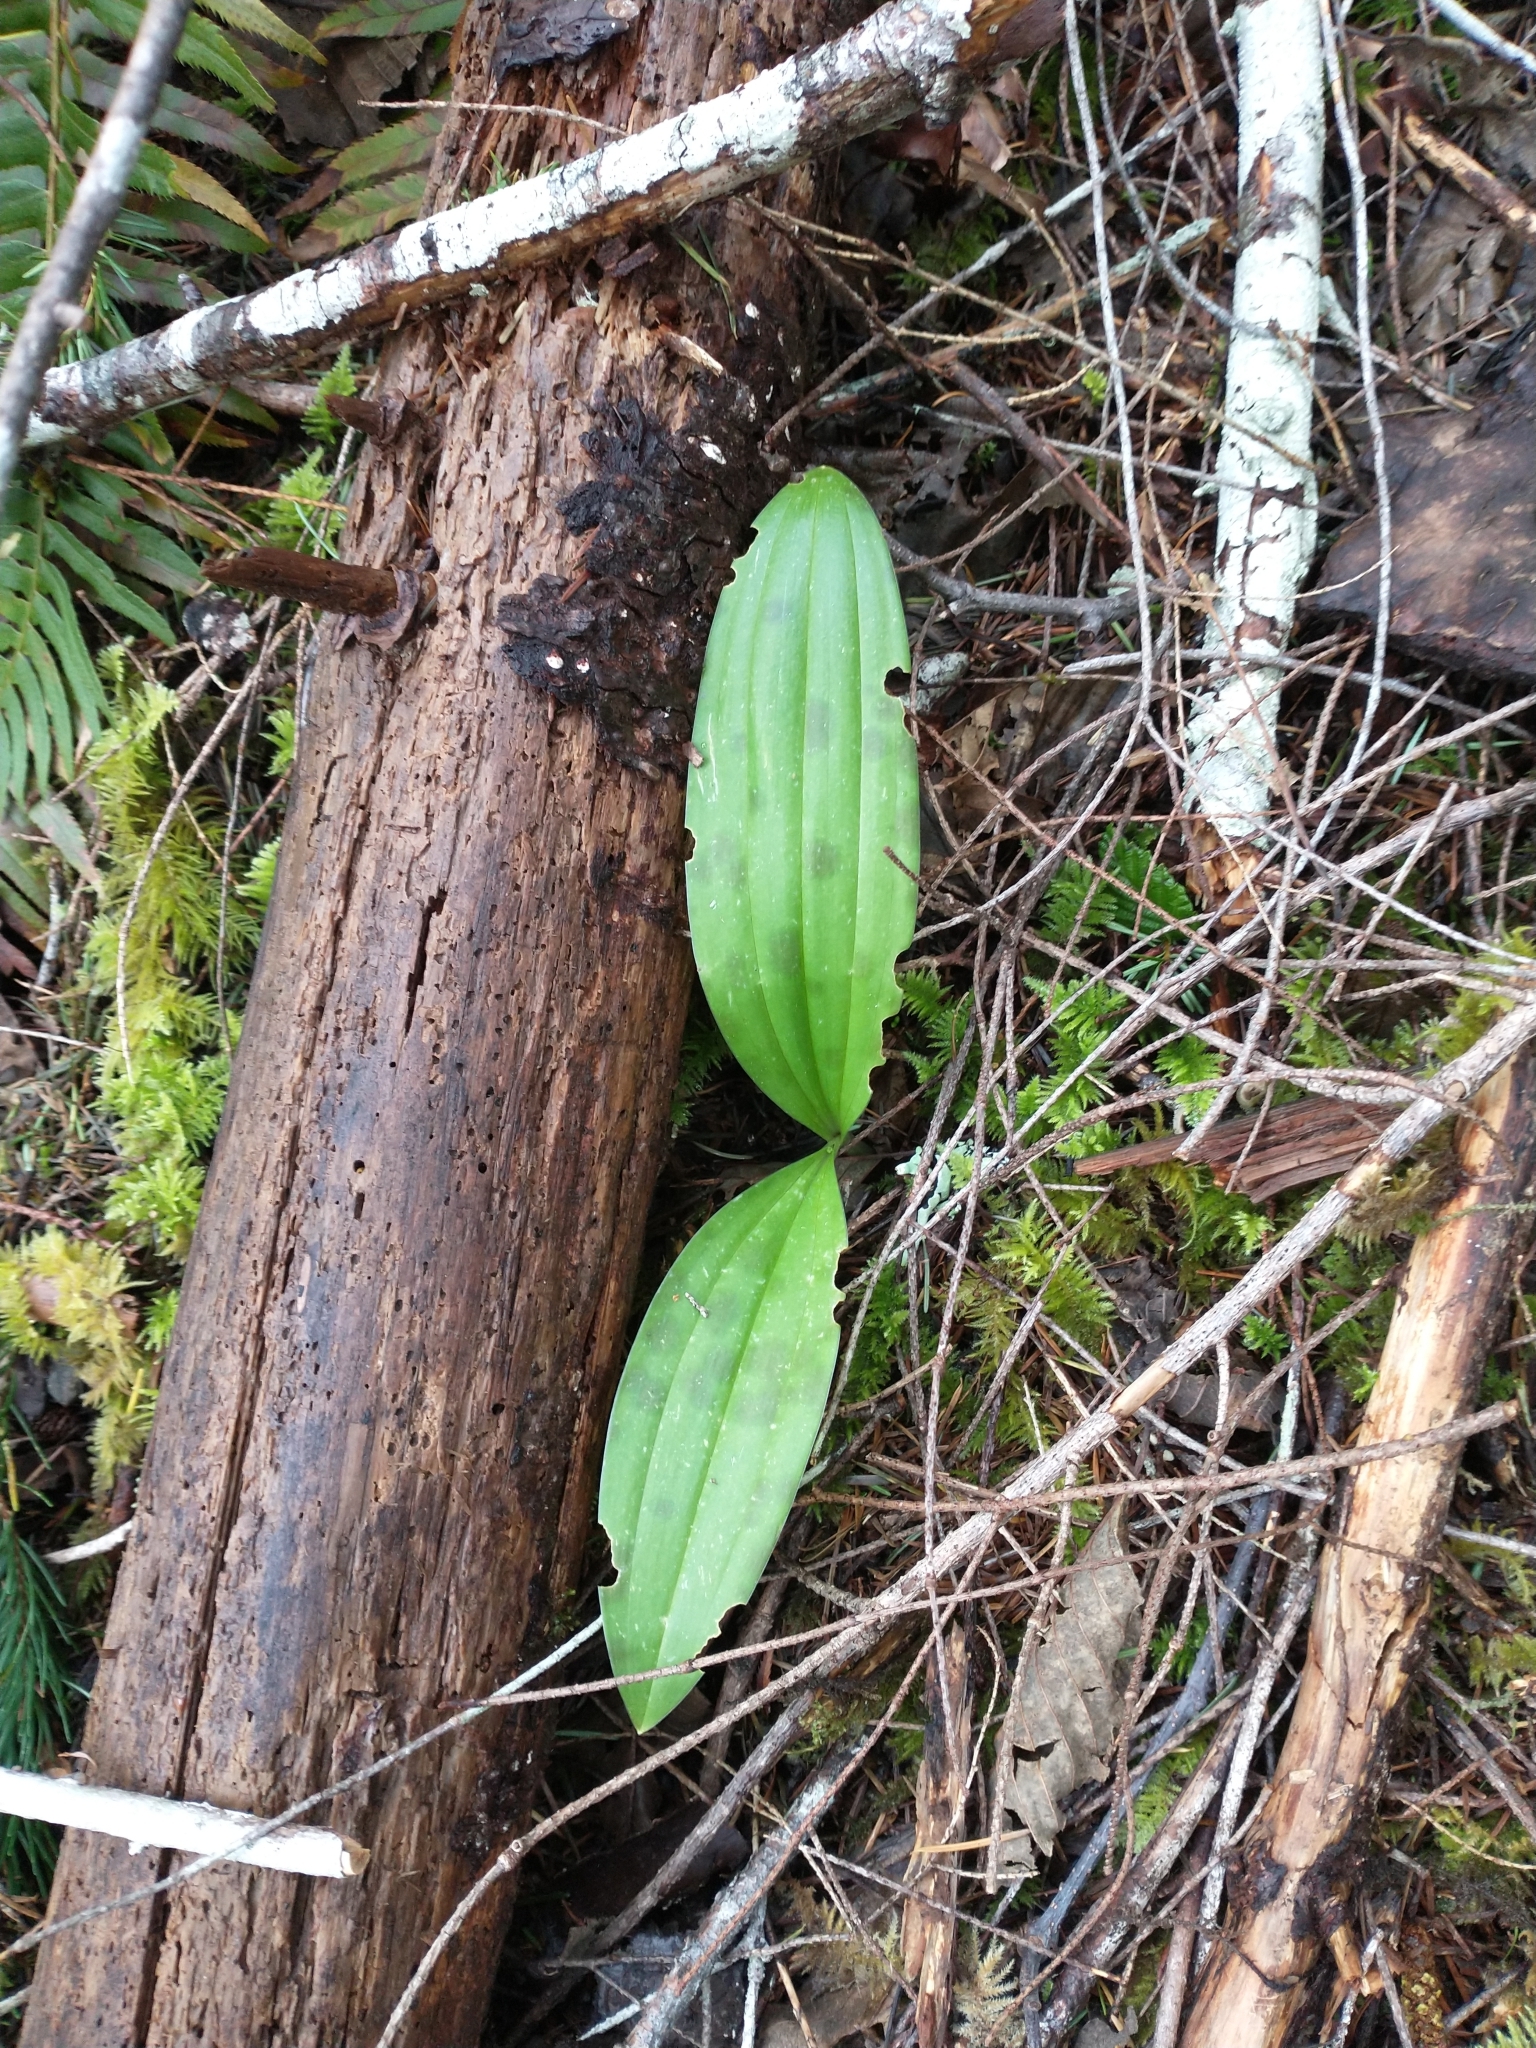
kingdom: Plantae
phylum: Tracheophyta
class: Liliopsida
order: Liliales
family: Liliaceae
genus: Scoliopus
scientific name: Scoliopus bigelovii
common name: Foetid adder's-tongue
